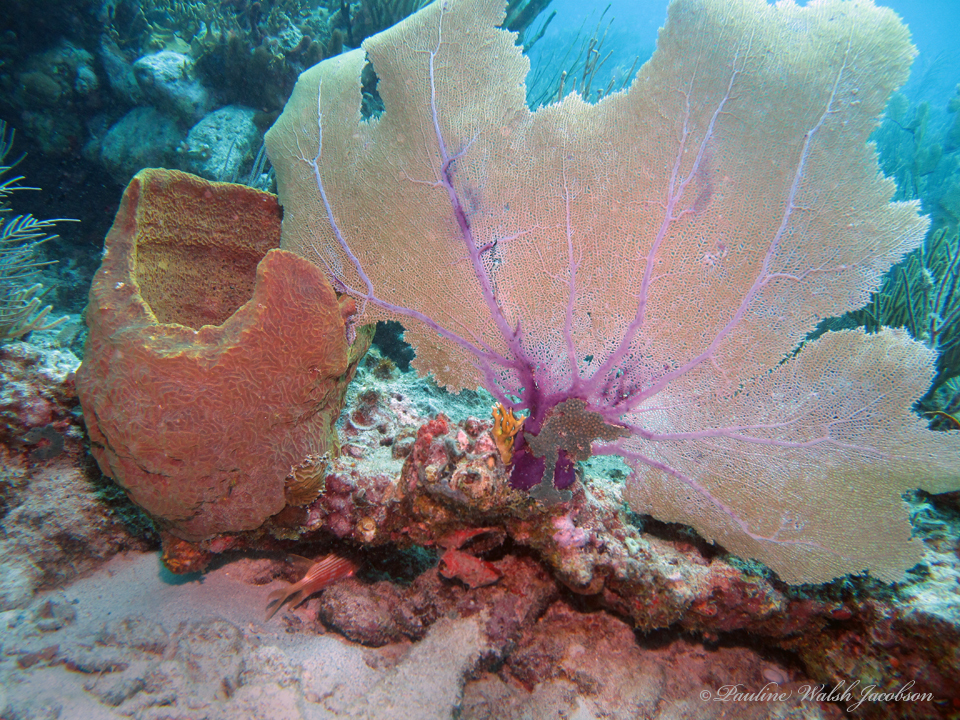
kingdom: Animalia
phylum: Porifera
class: Demospongiae
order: Verongiida
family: Aplysinidae
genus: Verongula
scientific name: Verongula gigantea
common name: Netted barrel sponge
